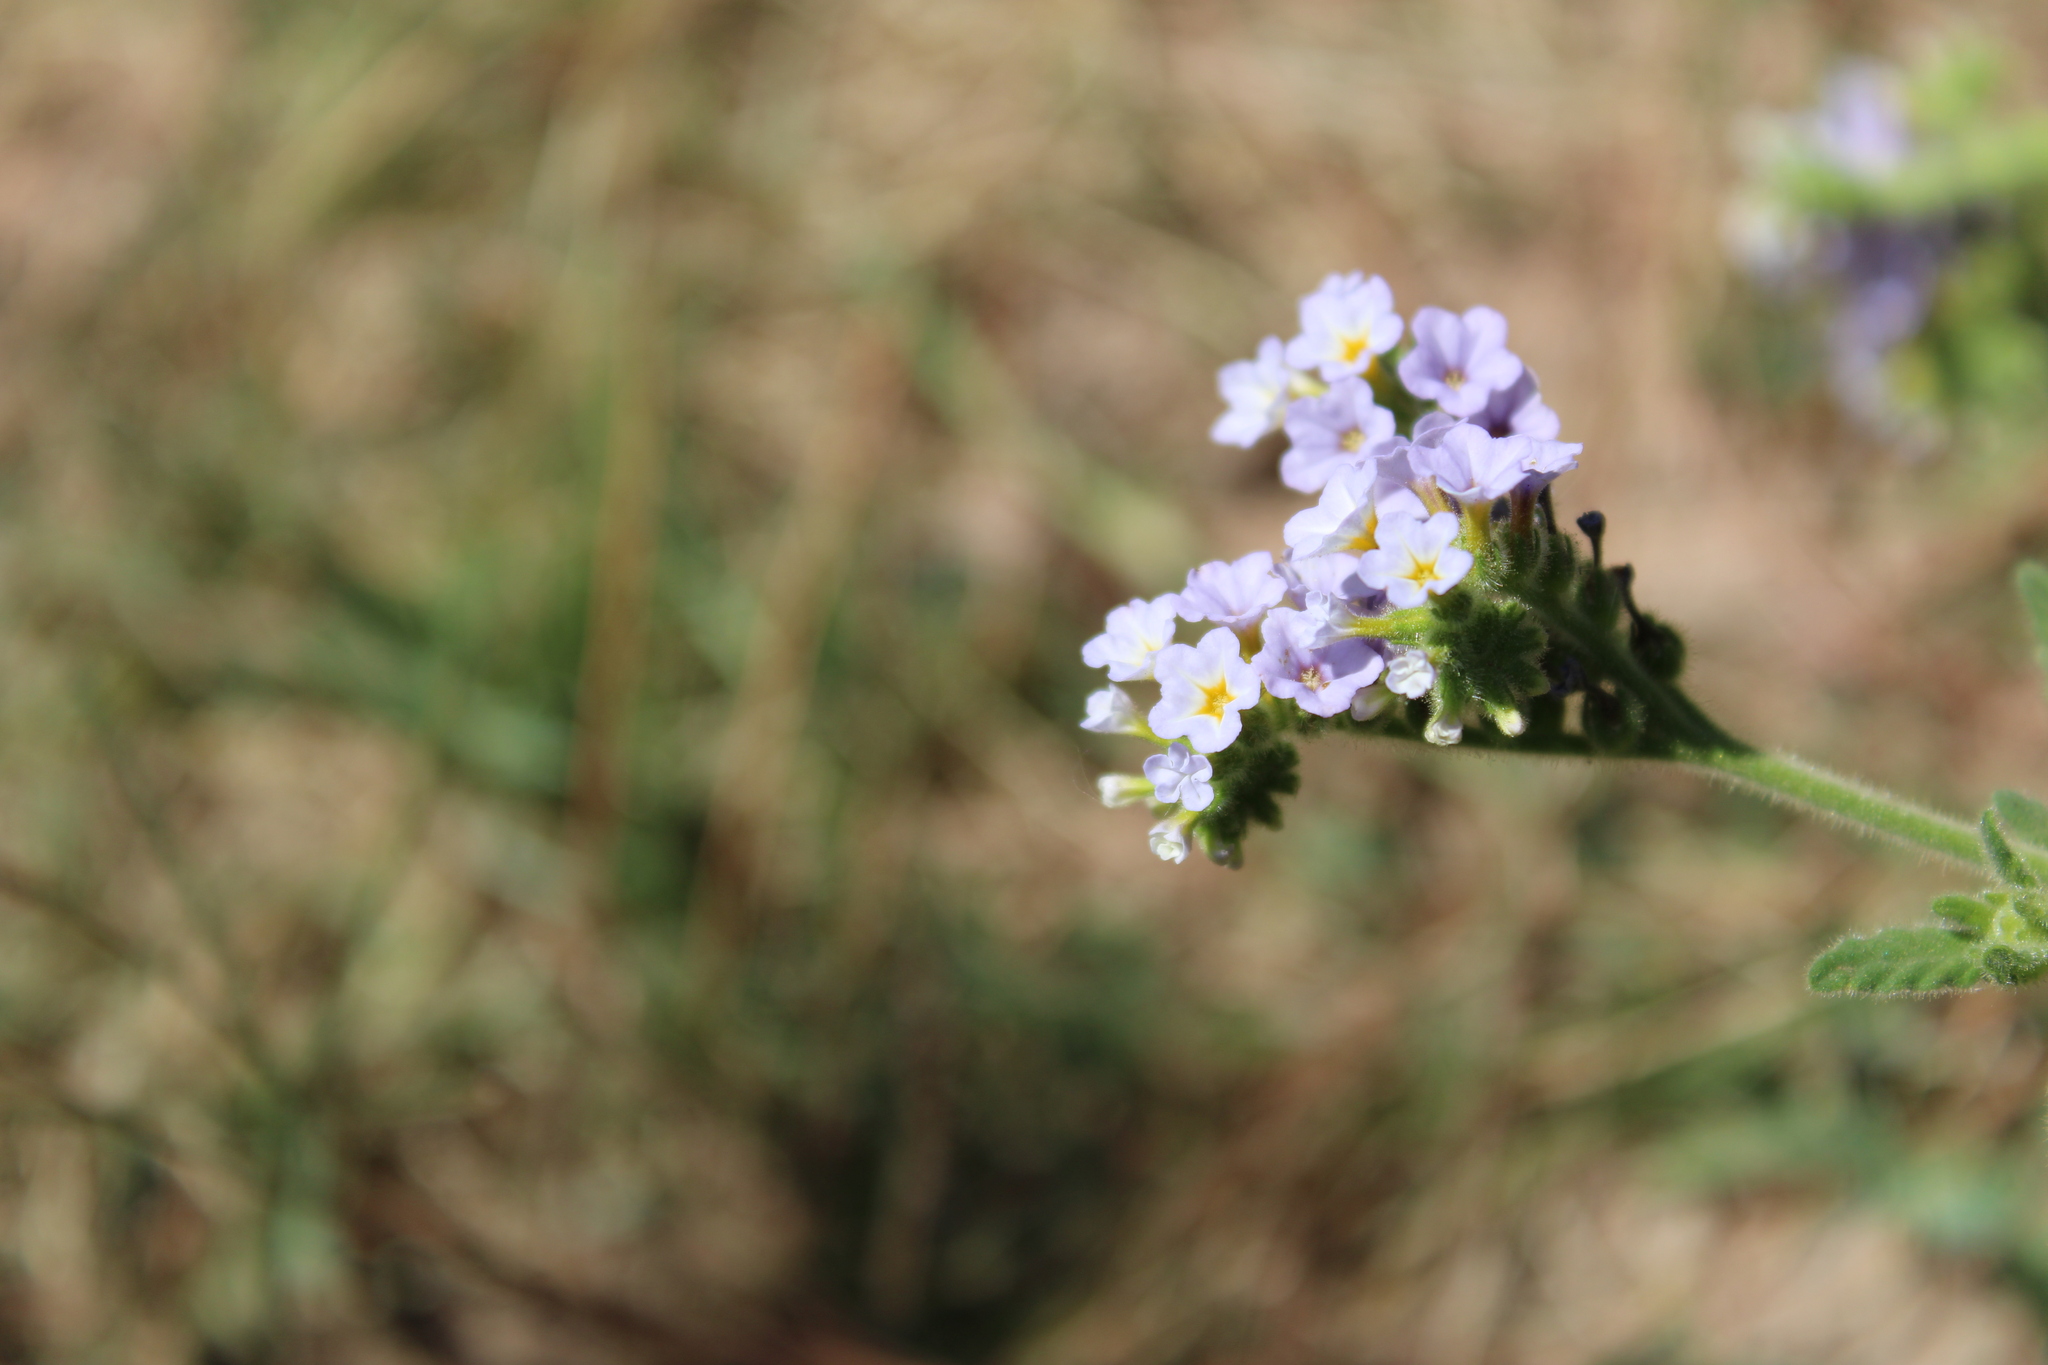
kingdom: Plantae
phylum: Tracheophyta
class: Magnoliopsida
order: Boraginales
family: Heliotropiaceae
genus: Heliotropium
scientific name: Heliotropium amplexicaule
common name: Clasping heliotrope
